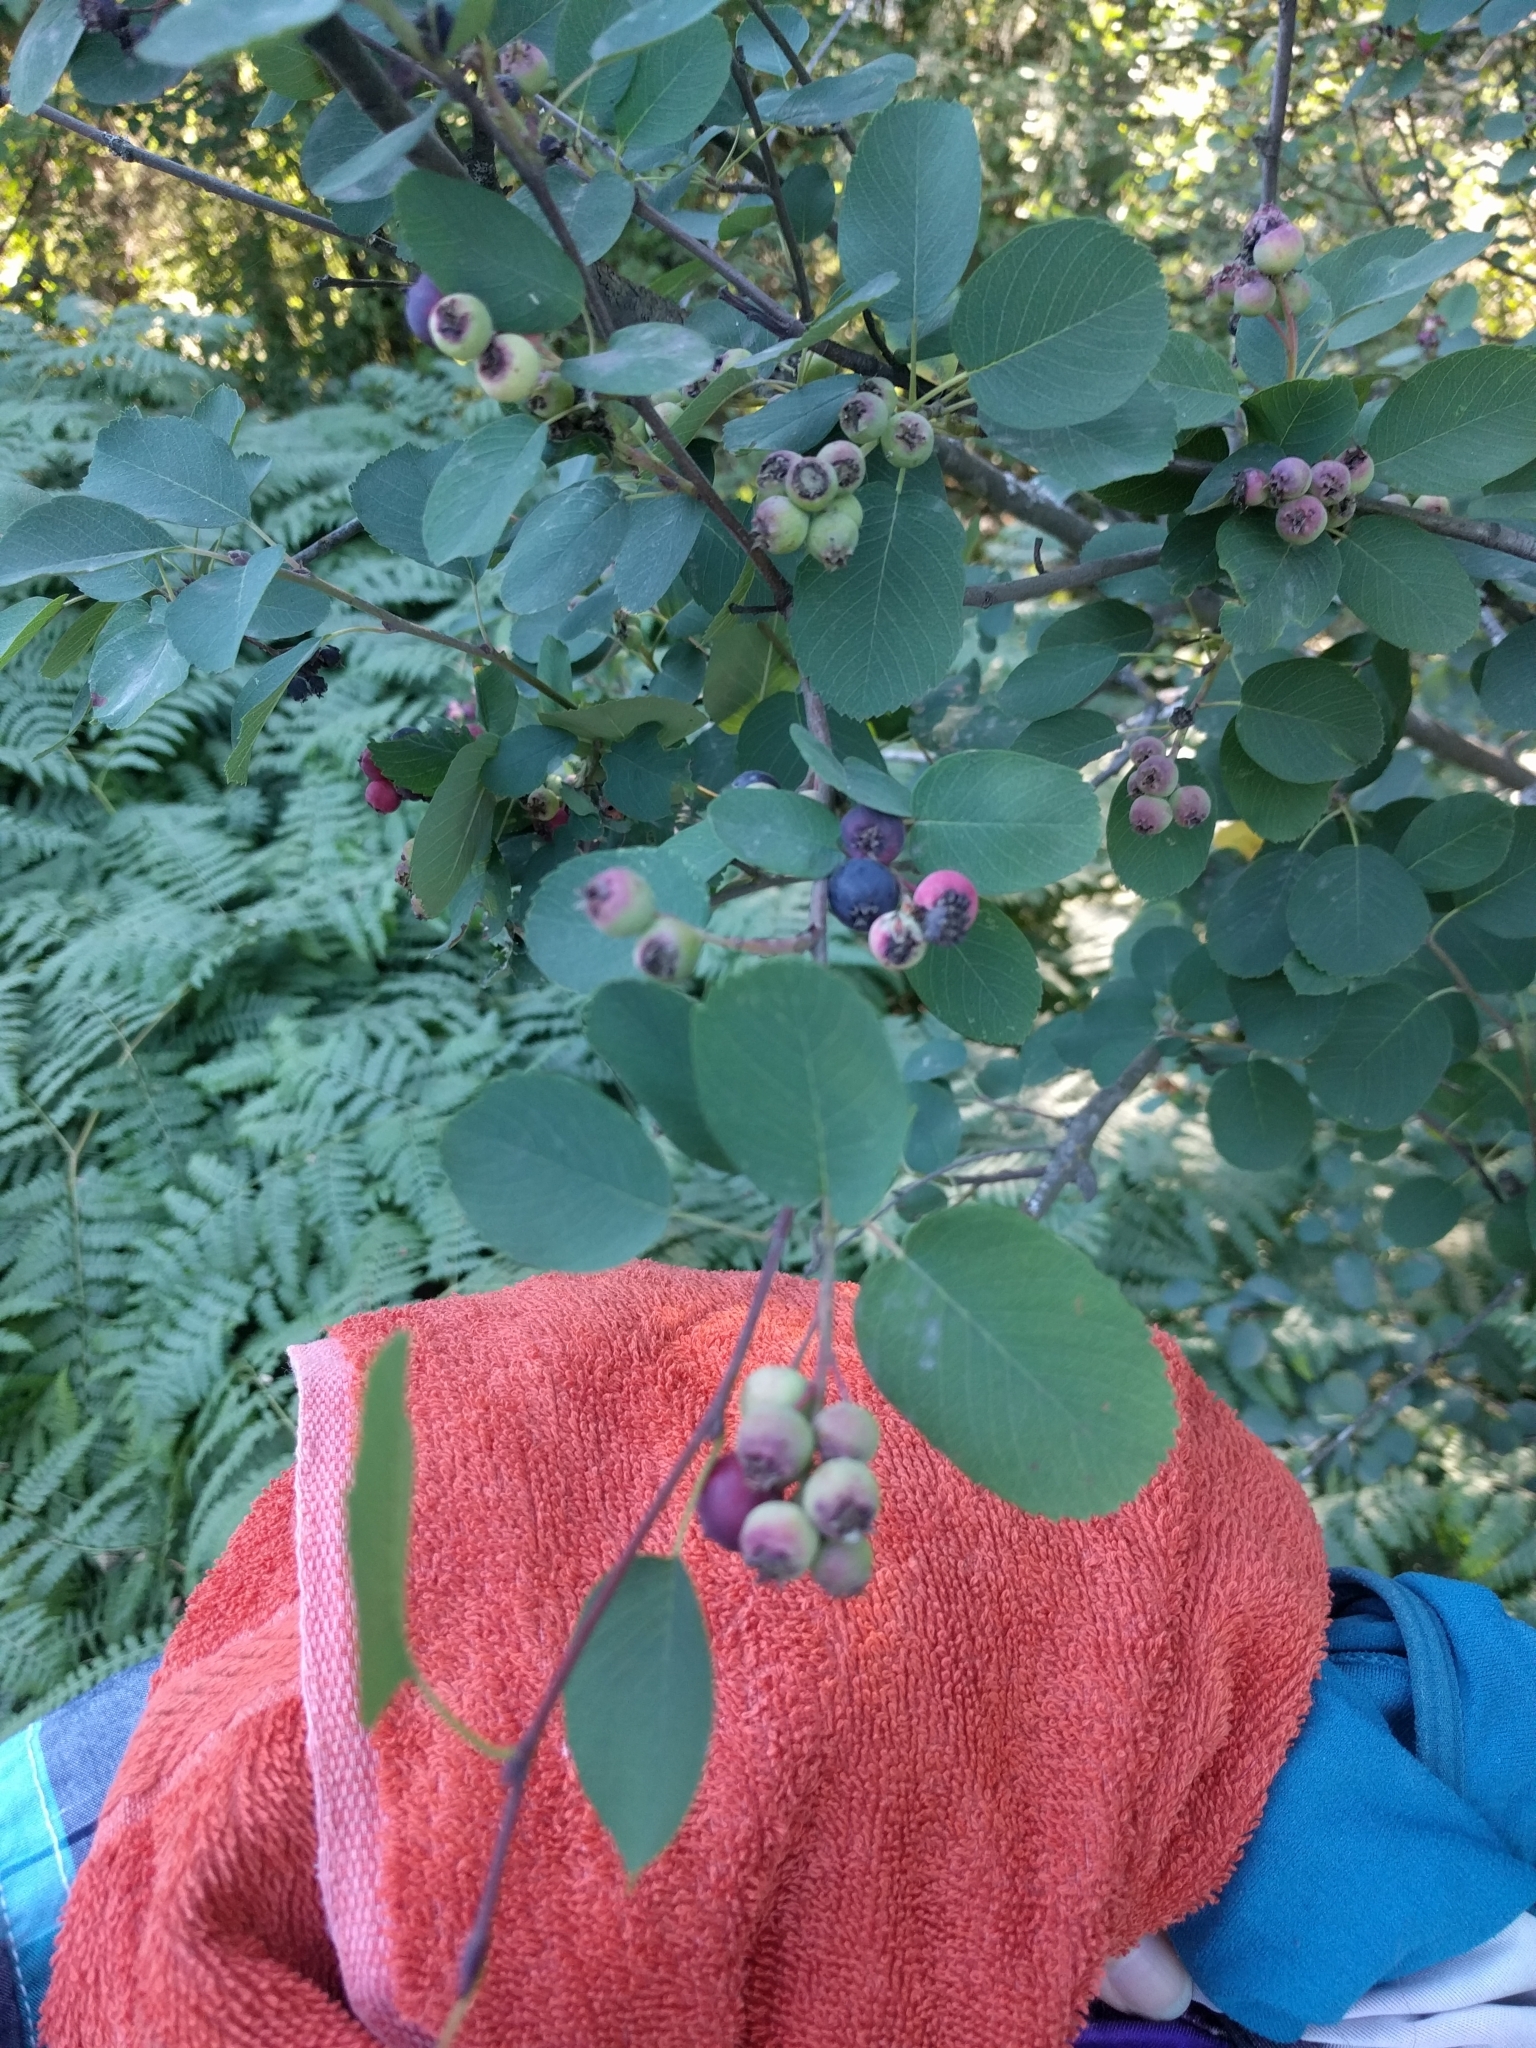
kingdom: Plantae
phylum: Tracheophyta
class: Magnoliopsida
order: Rosales
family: Rosaceae
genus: Amelanchier
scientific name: Amelanchier alnifolia
